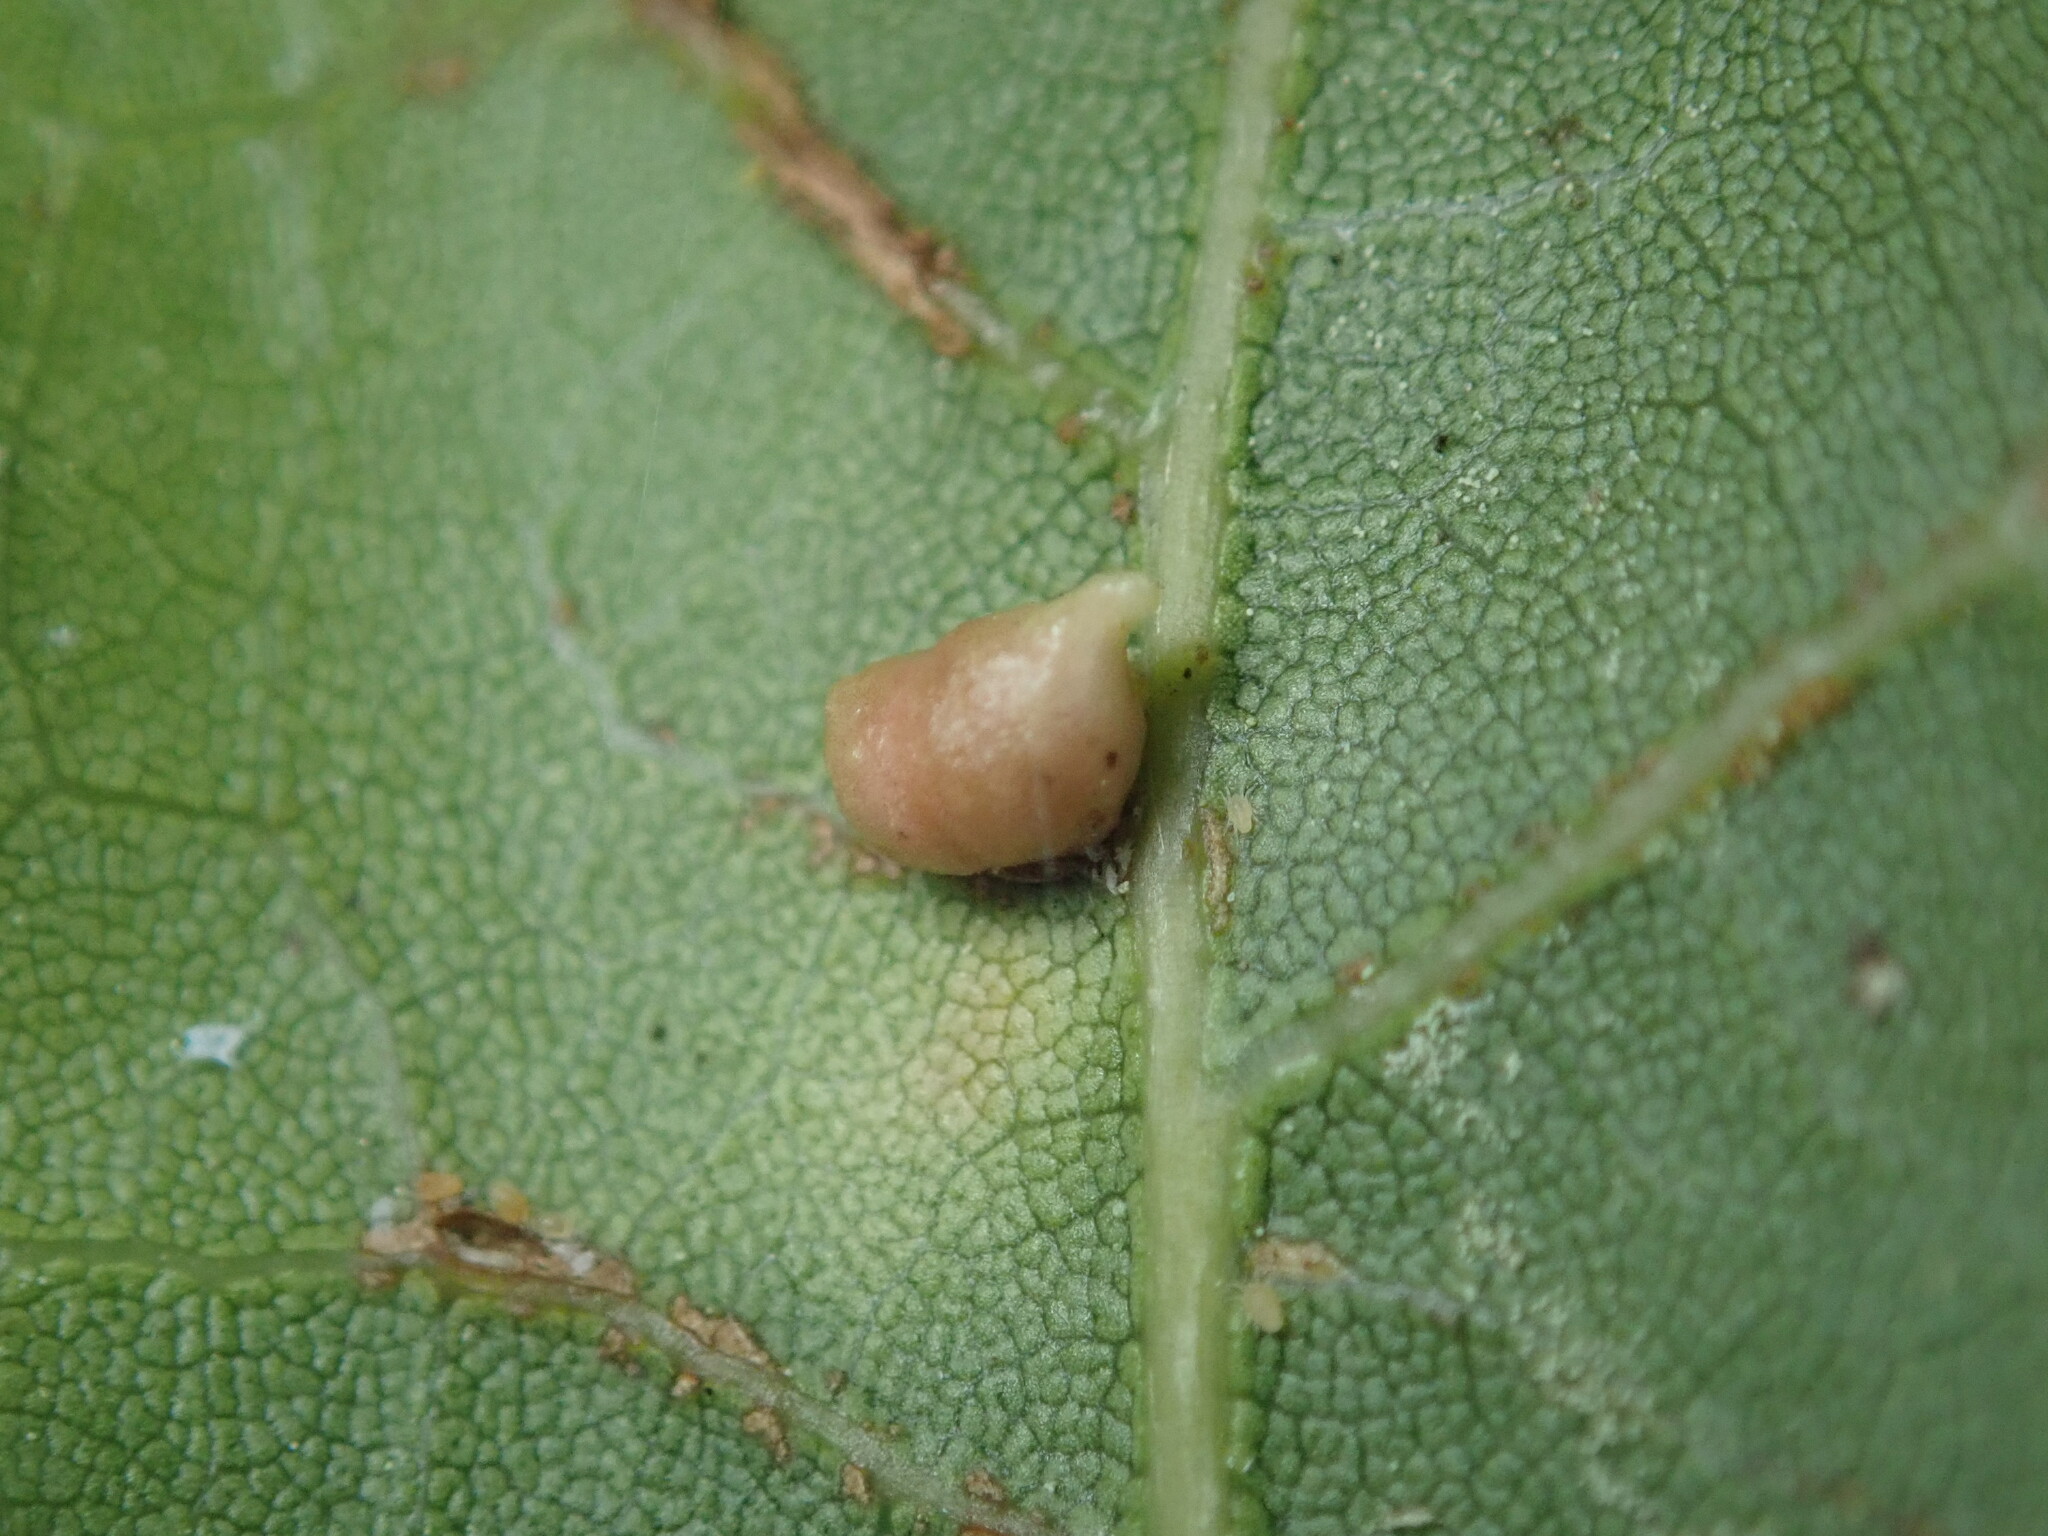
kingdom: Animalia
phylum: Arthropoda
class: Insecta
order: Hymenoptera
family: Cynipidae
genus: Dryocosmus
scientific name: Dryocosmus
